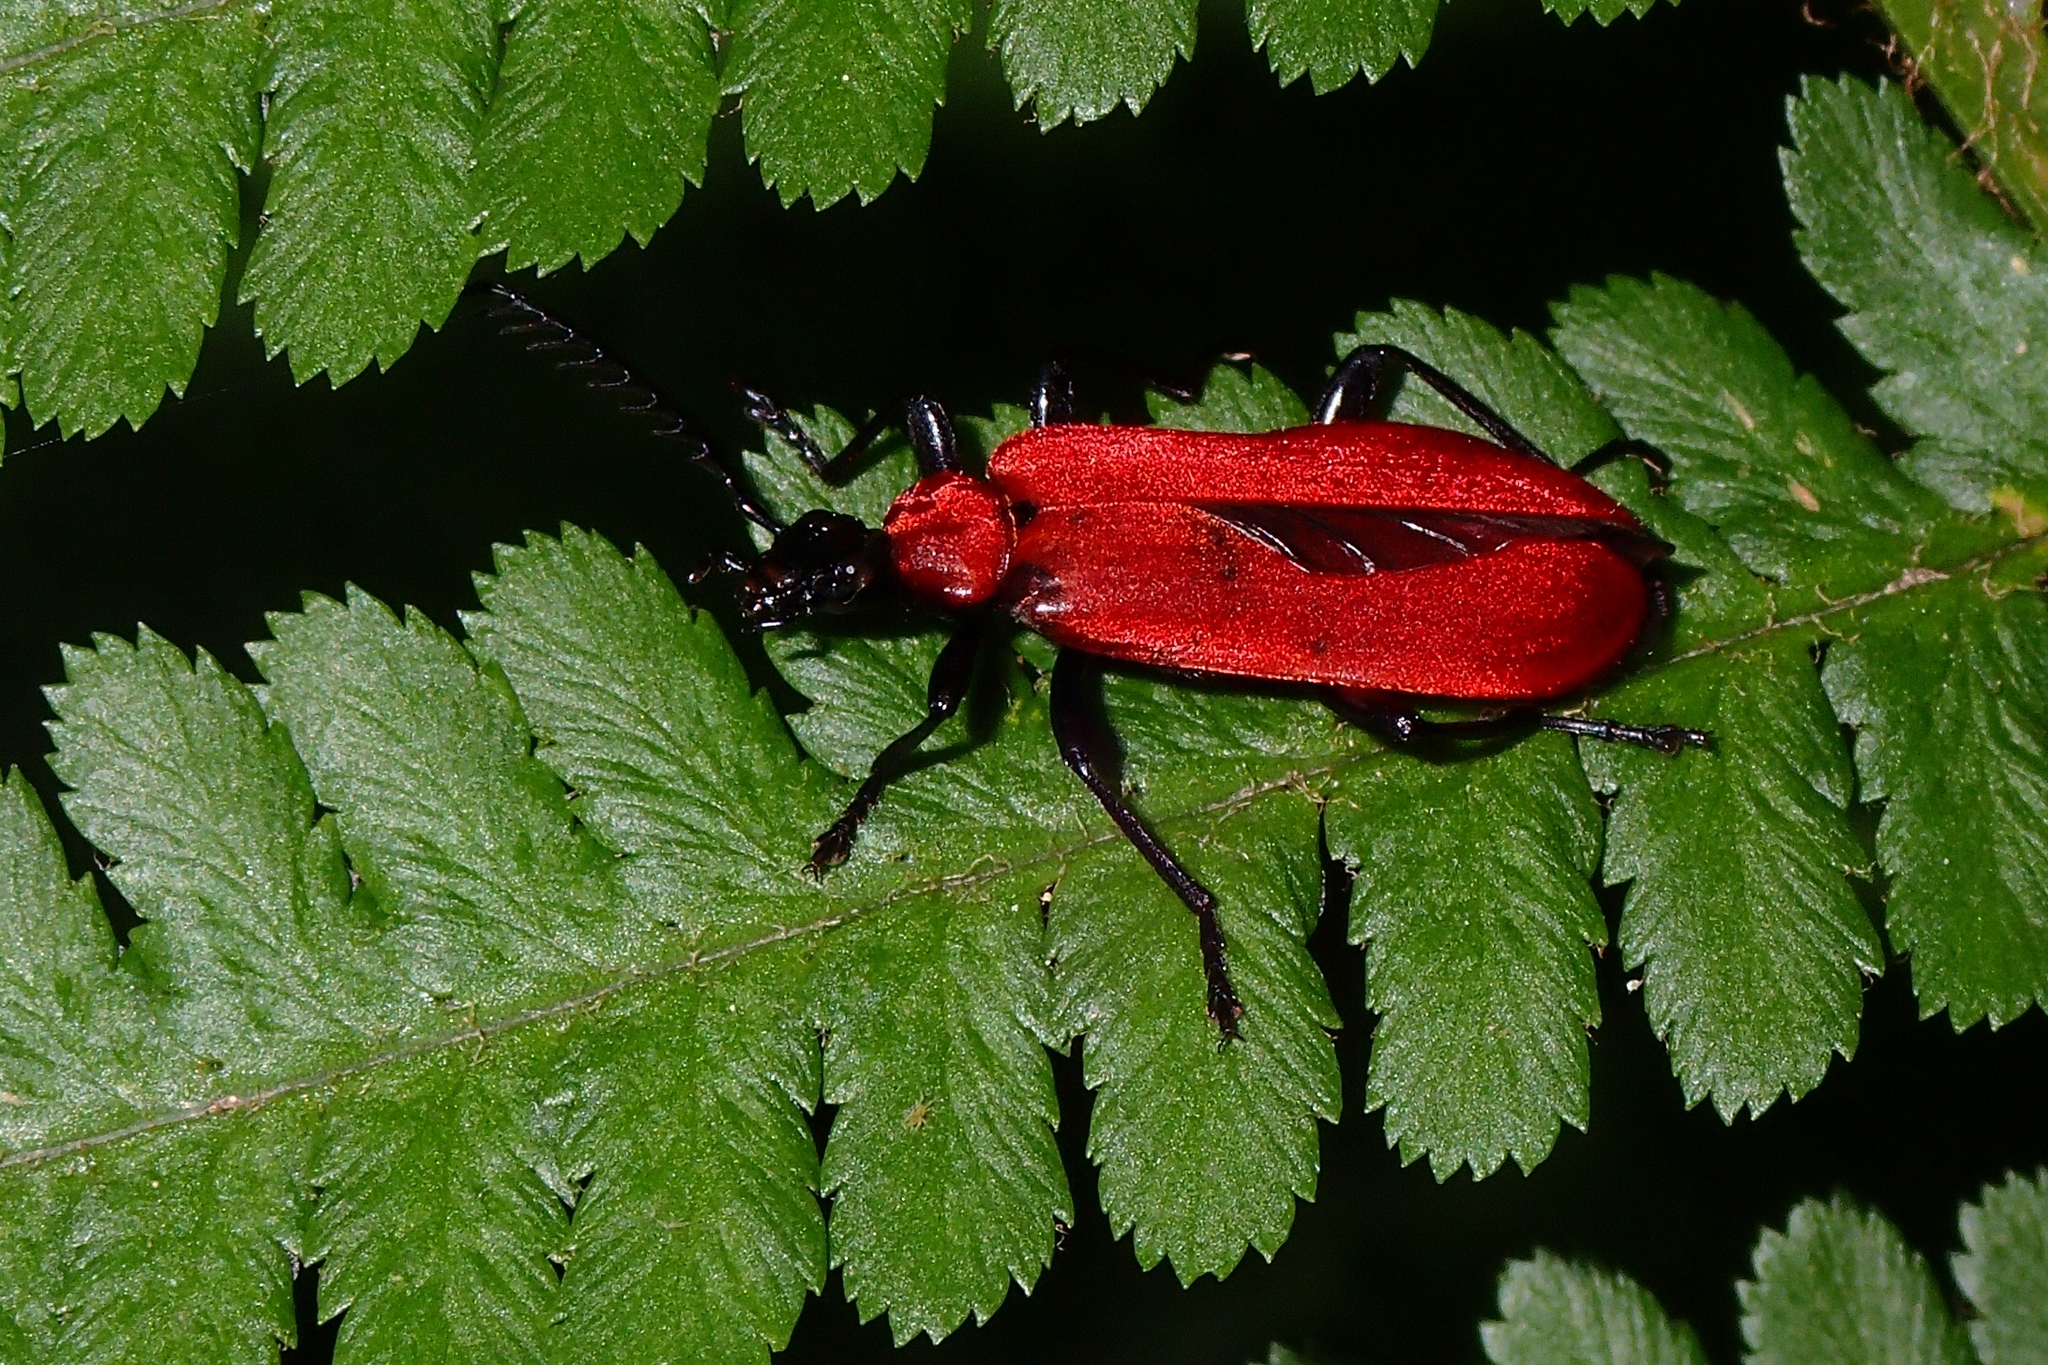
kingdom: Animalia
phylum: Arthropoda
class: Insecta
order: Coleoptera
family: Pyrochroidae
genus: Pyrochroa
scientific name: Pyrochroa coccinea
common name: Black-headed cardinal beetle
